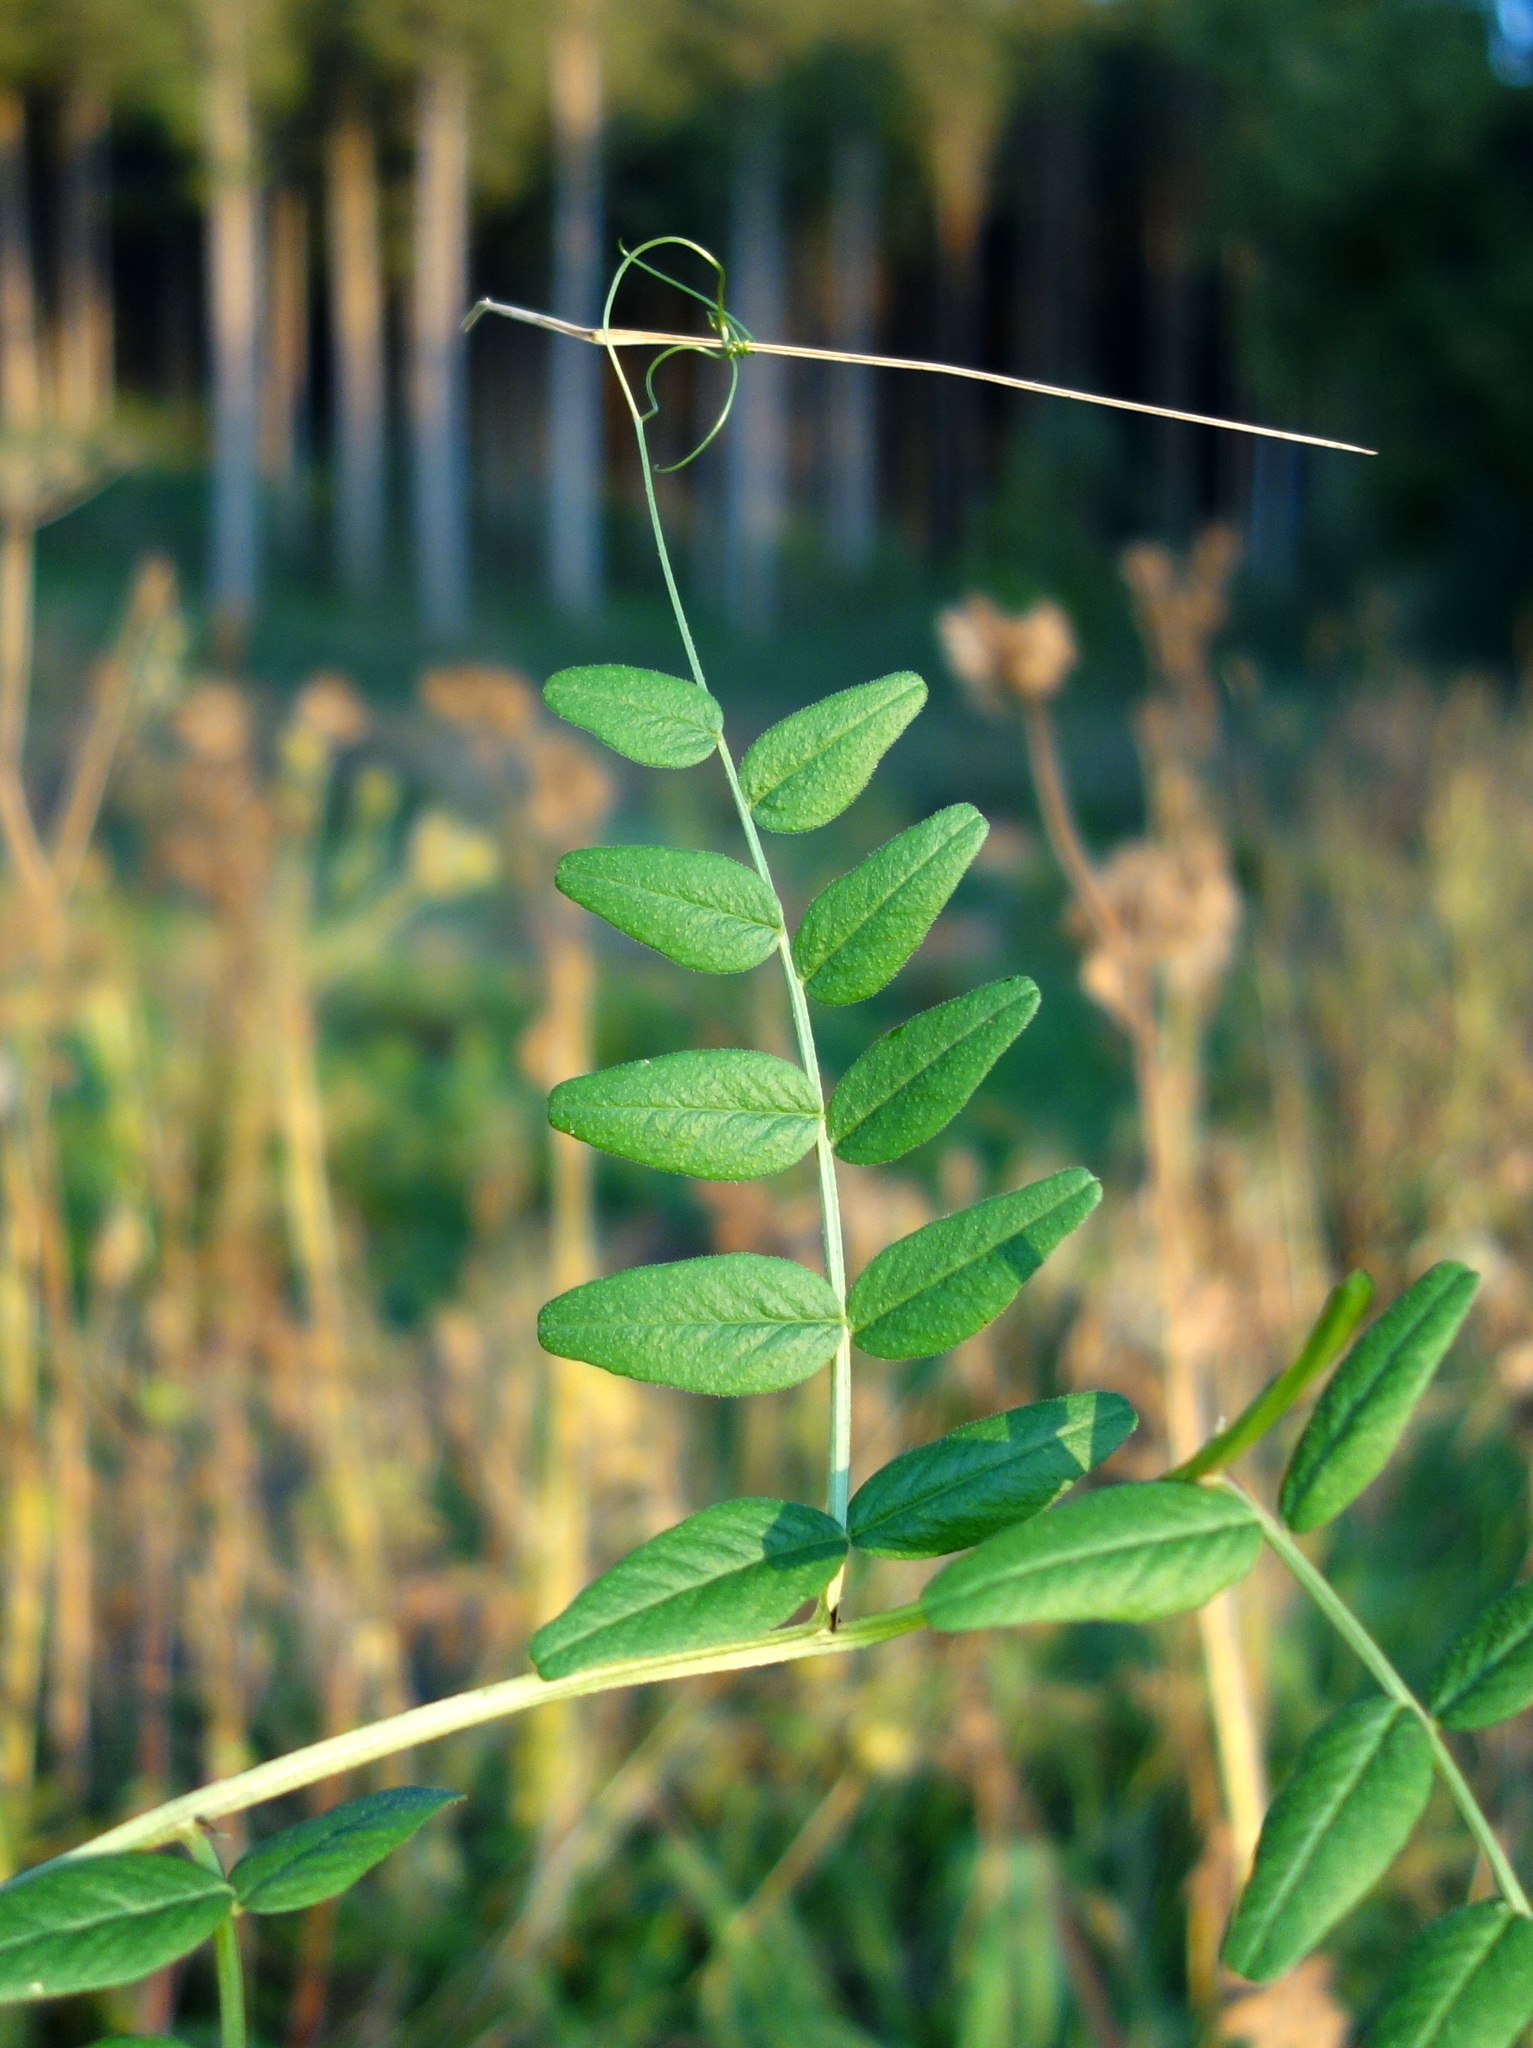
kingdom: Plantae
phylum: Tracheophyta
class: Magnoliopsida
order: Fabales
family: Fabaceae
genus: Vicia
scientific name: Vicia sepium
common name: Bush vetch
